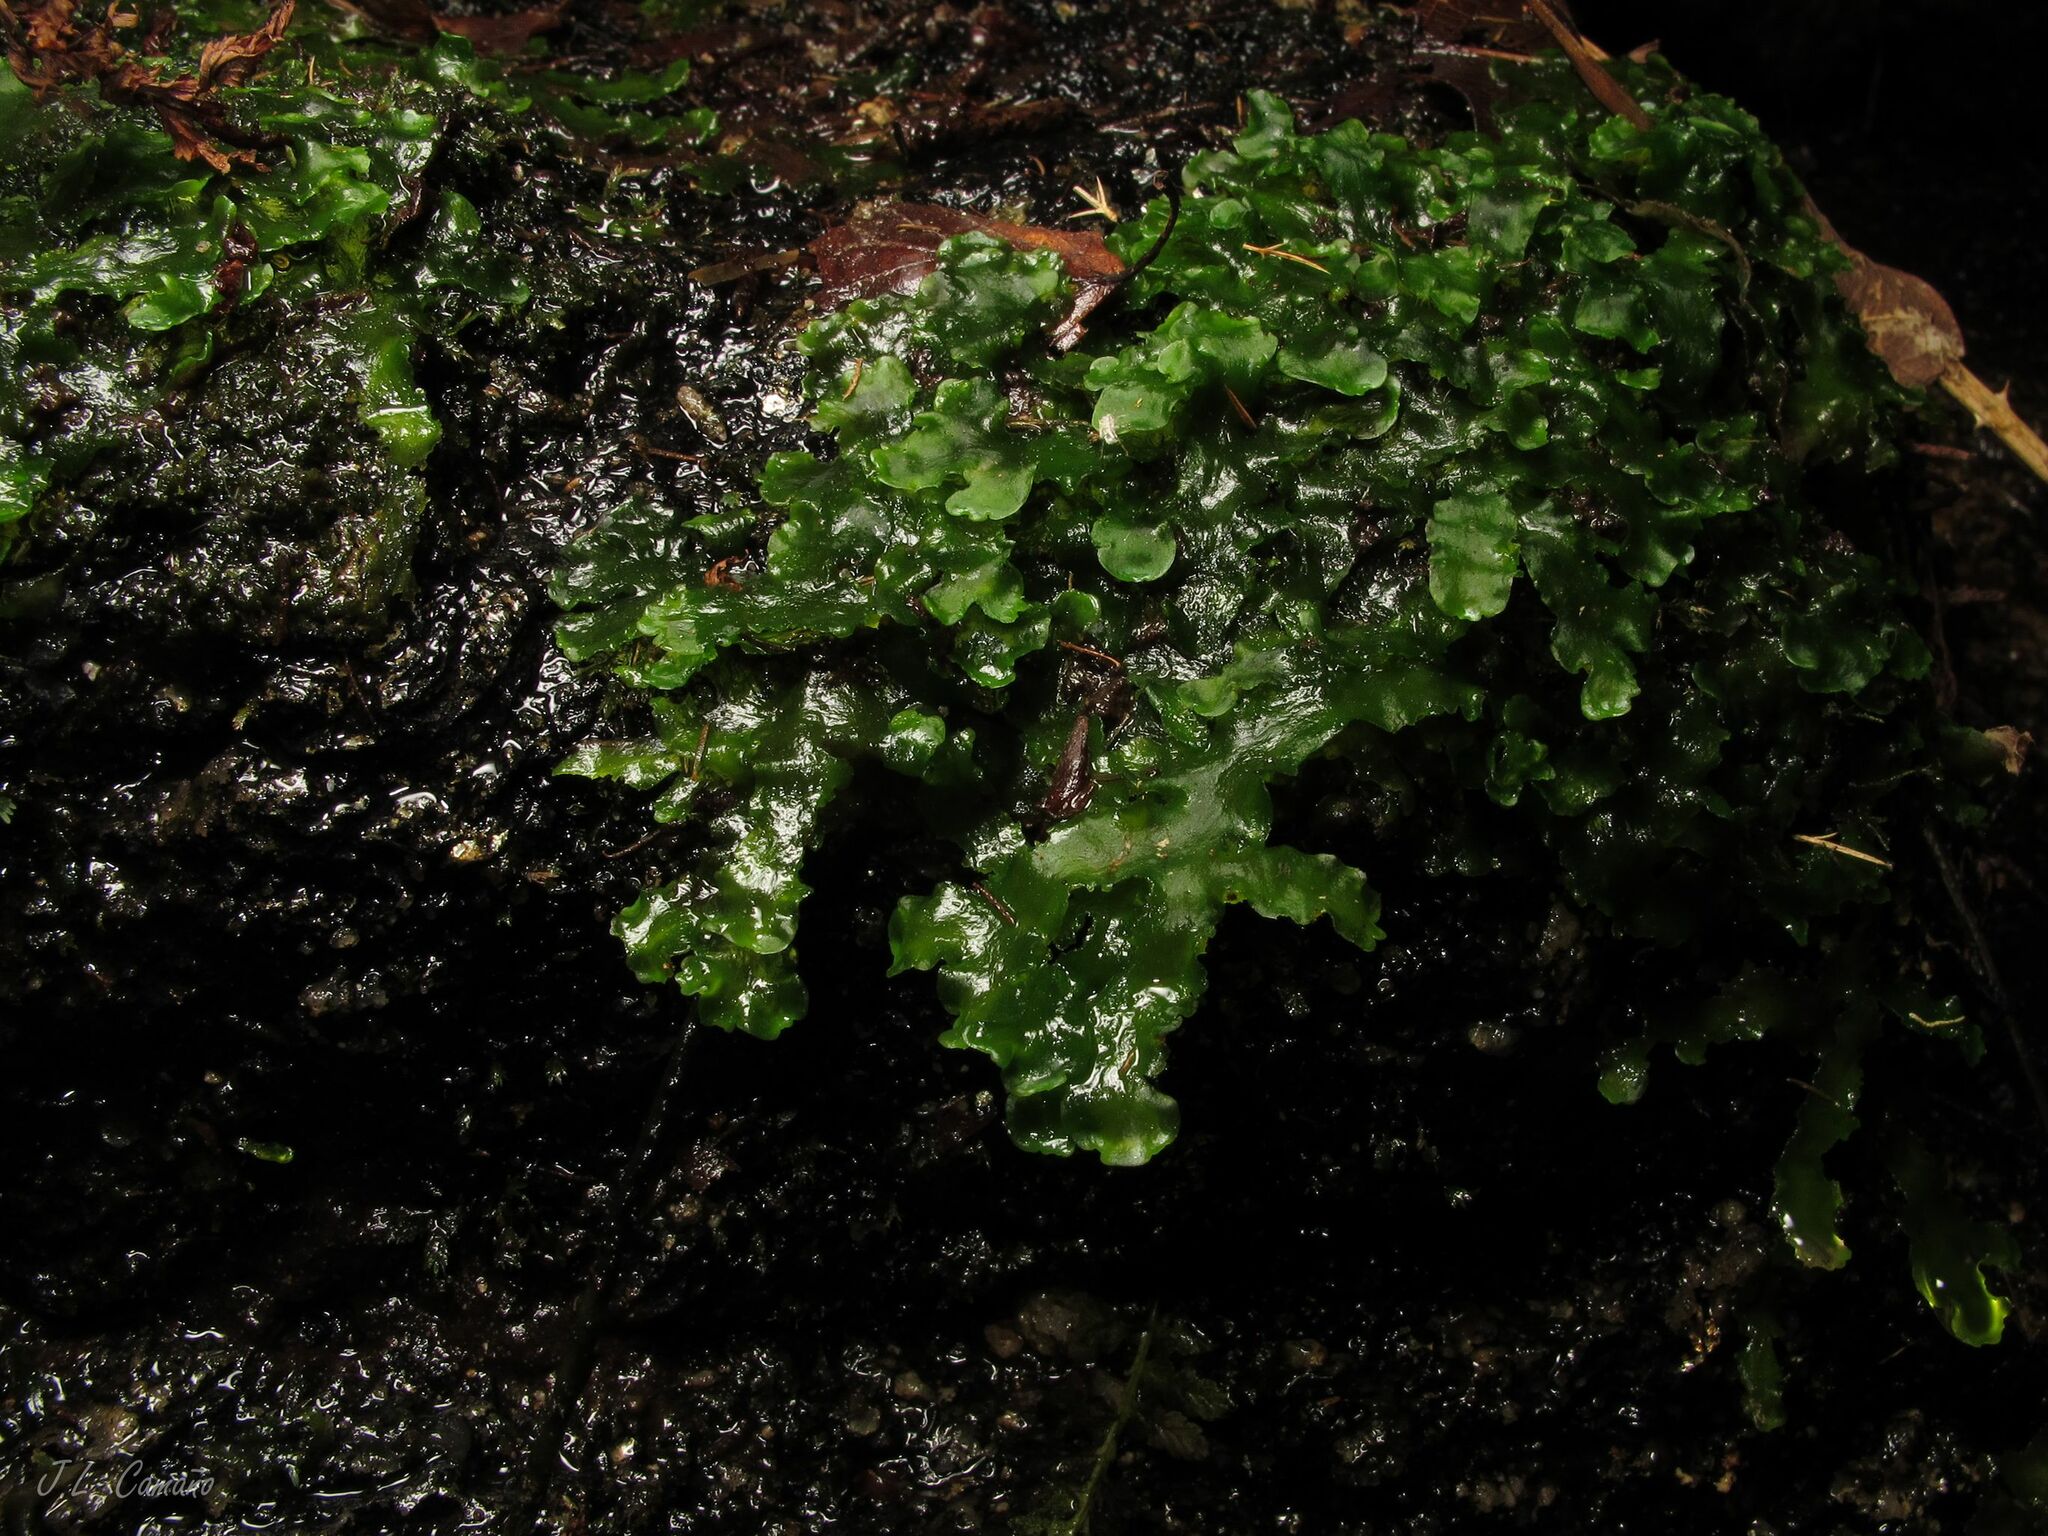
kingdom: Plantae
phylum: Marchantiophyta
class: Jungermanniopsida
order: Metzgeriales
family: Aneuraceae
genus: Aneura
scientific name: Aneura pinguis
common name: Common greasewort
